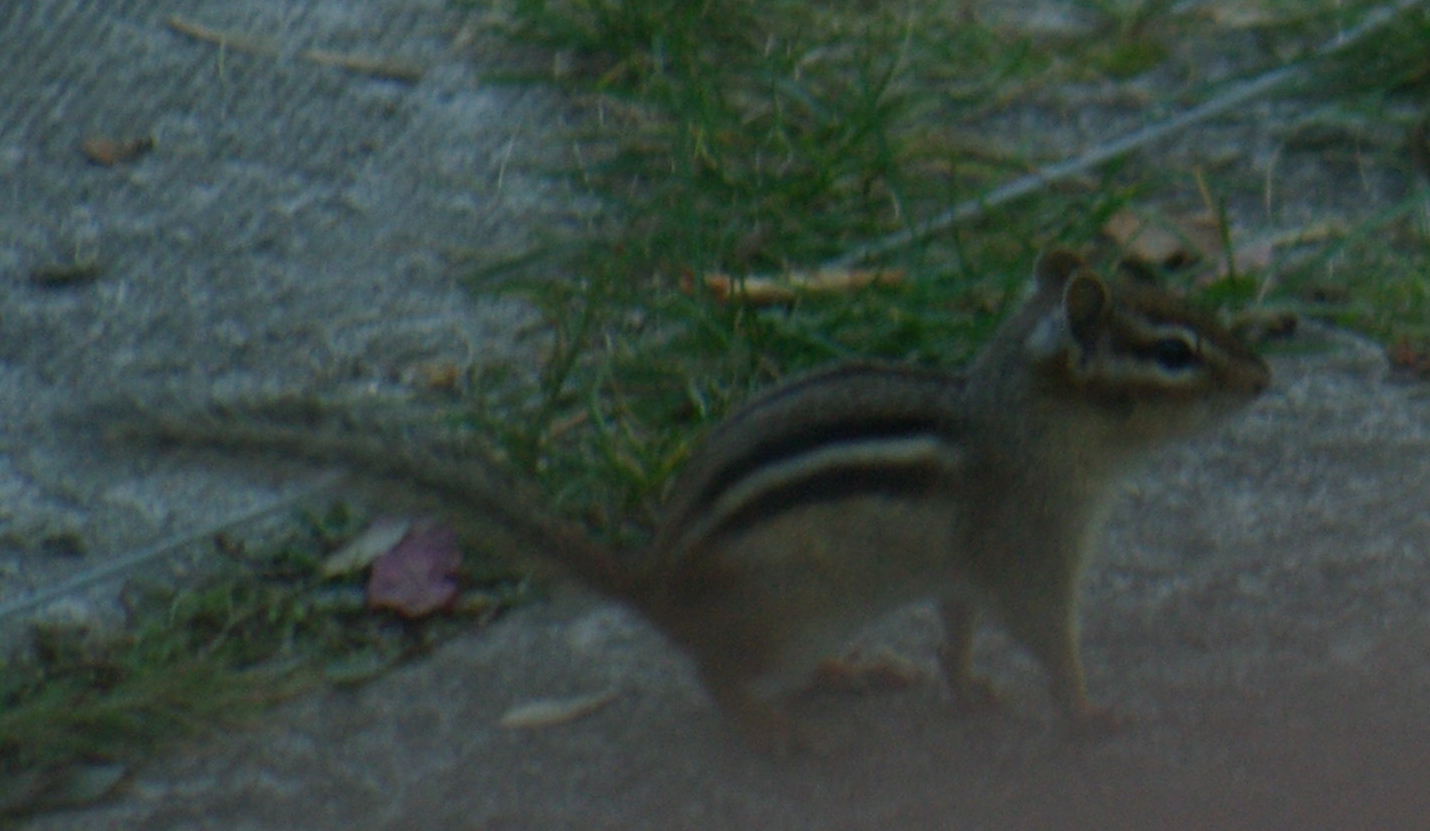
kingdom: Animalia
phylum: Chordata
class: Mammalia
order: Rodentia
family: Sciuridae
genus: Tamias
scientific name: Tamias striatus
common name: Eastern chipmunk
